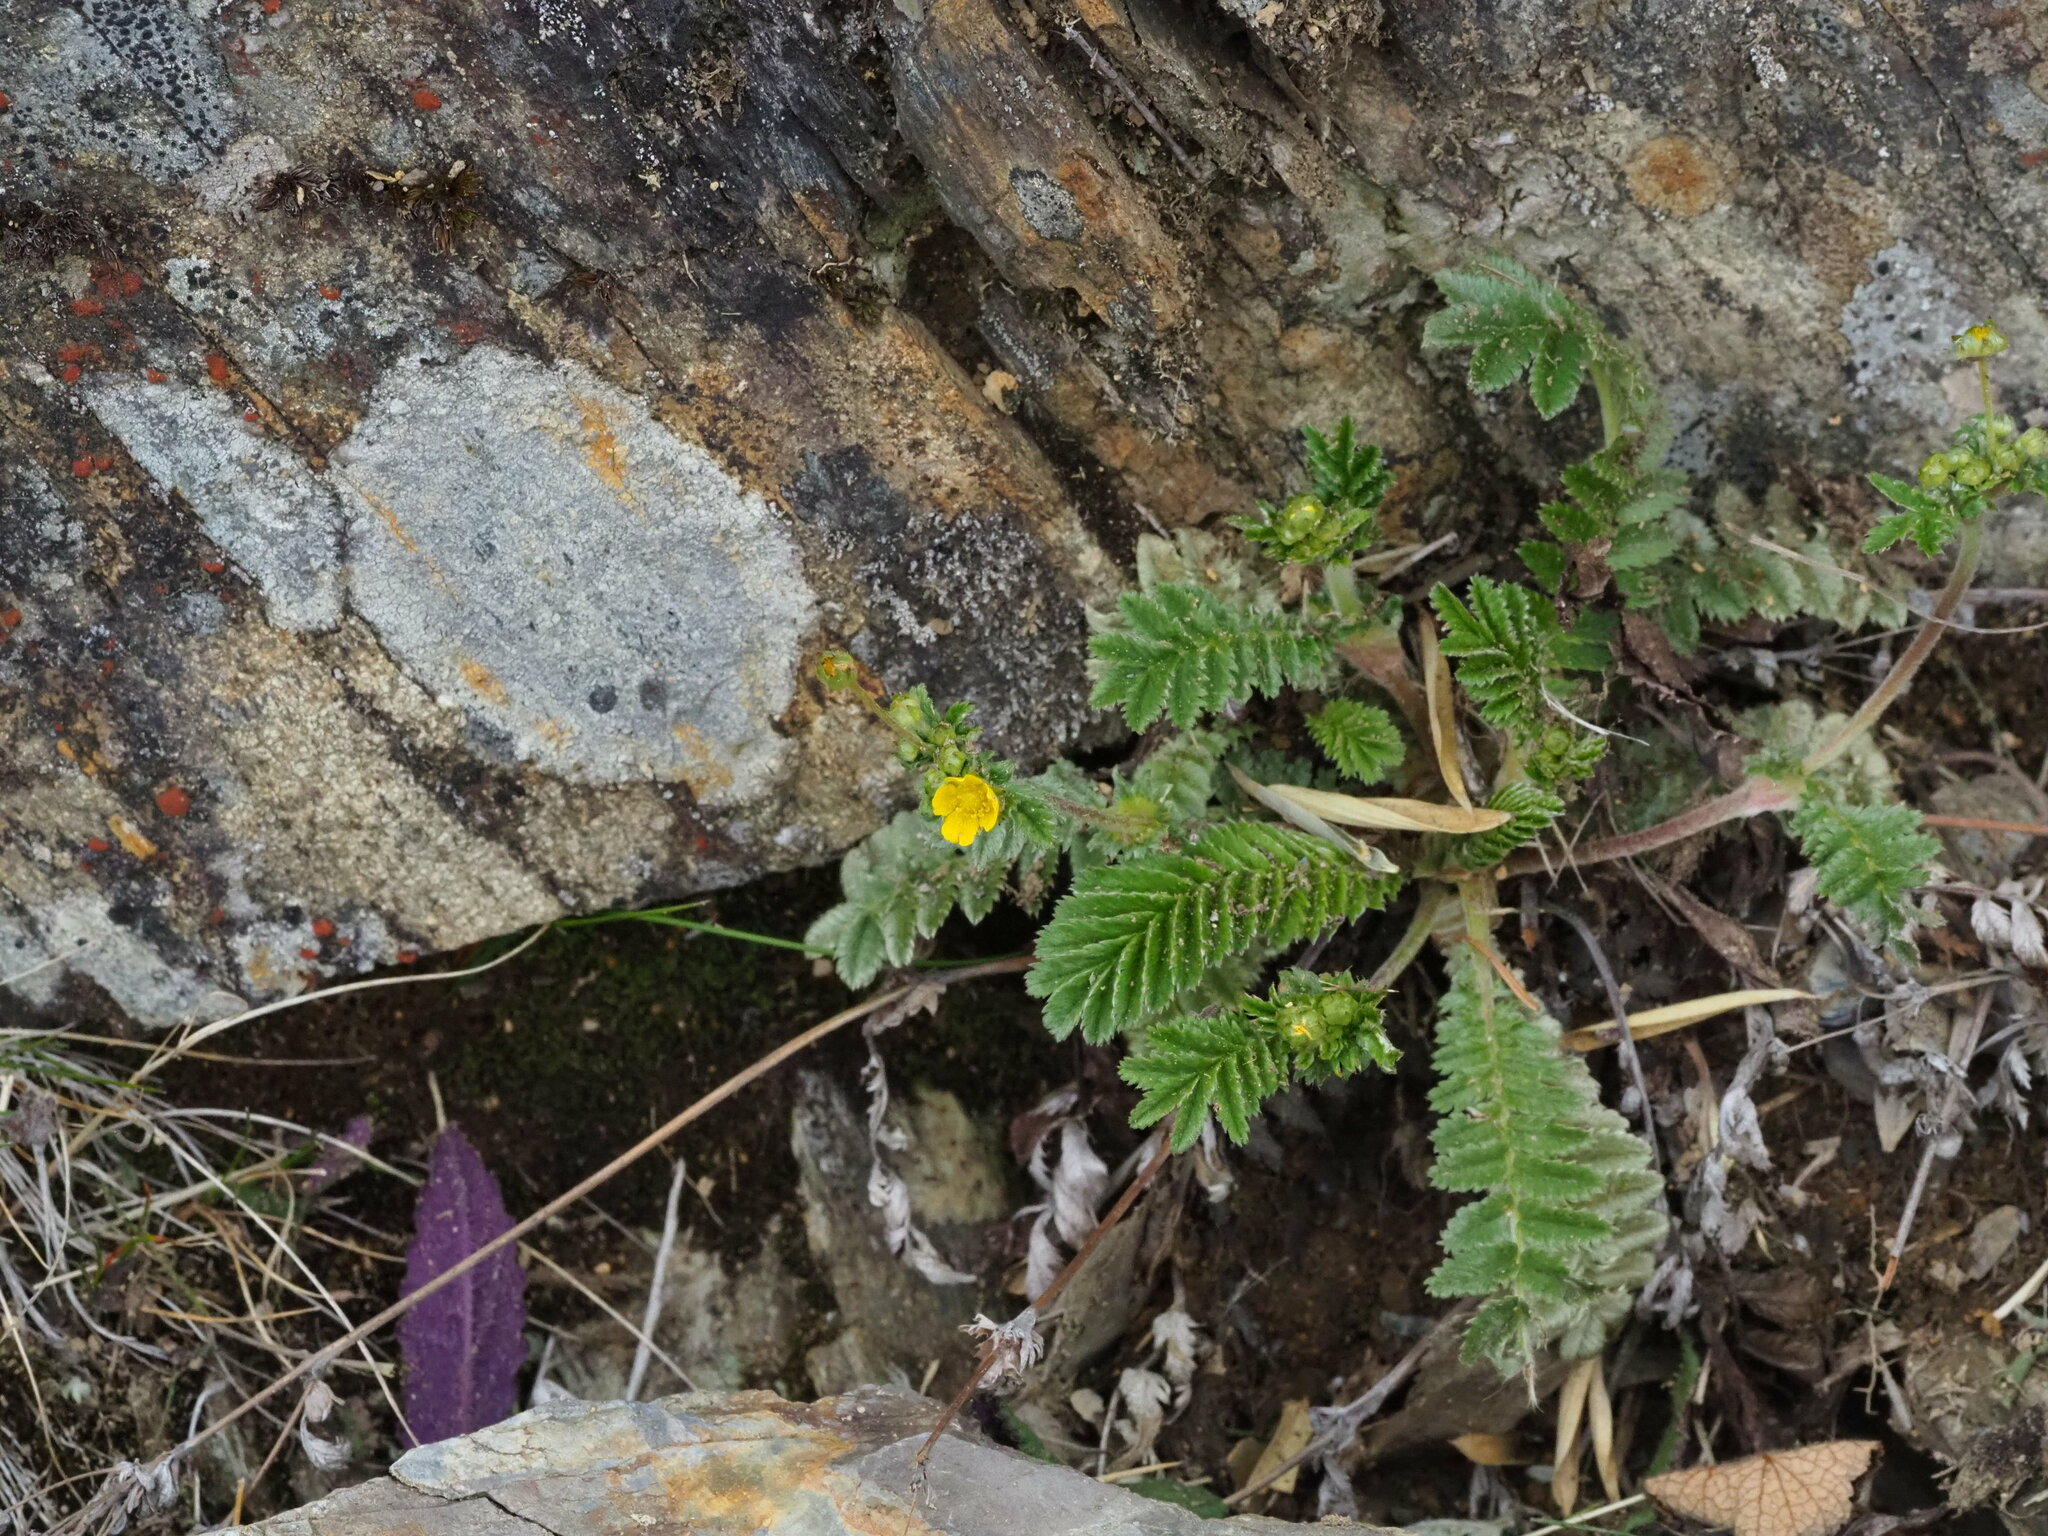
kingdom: Plantae
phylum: Tracheophyta
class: Magnoliopsida
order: Rosales
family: Rosaceae
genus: Argentina
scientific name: Argentina leuconota
